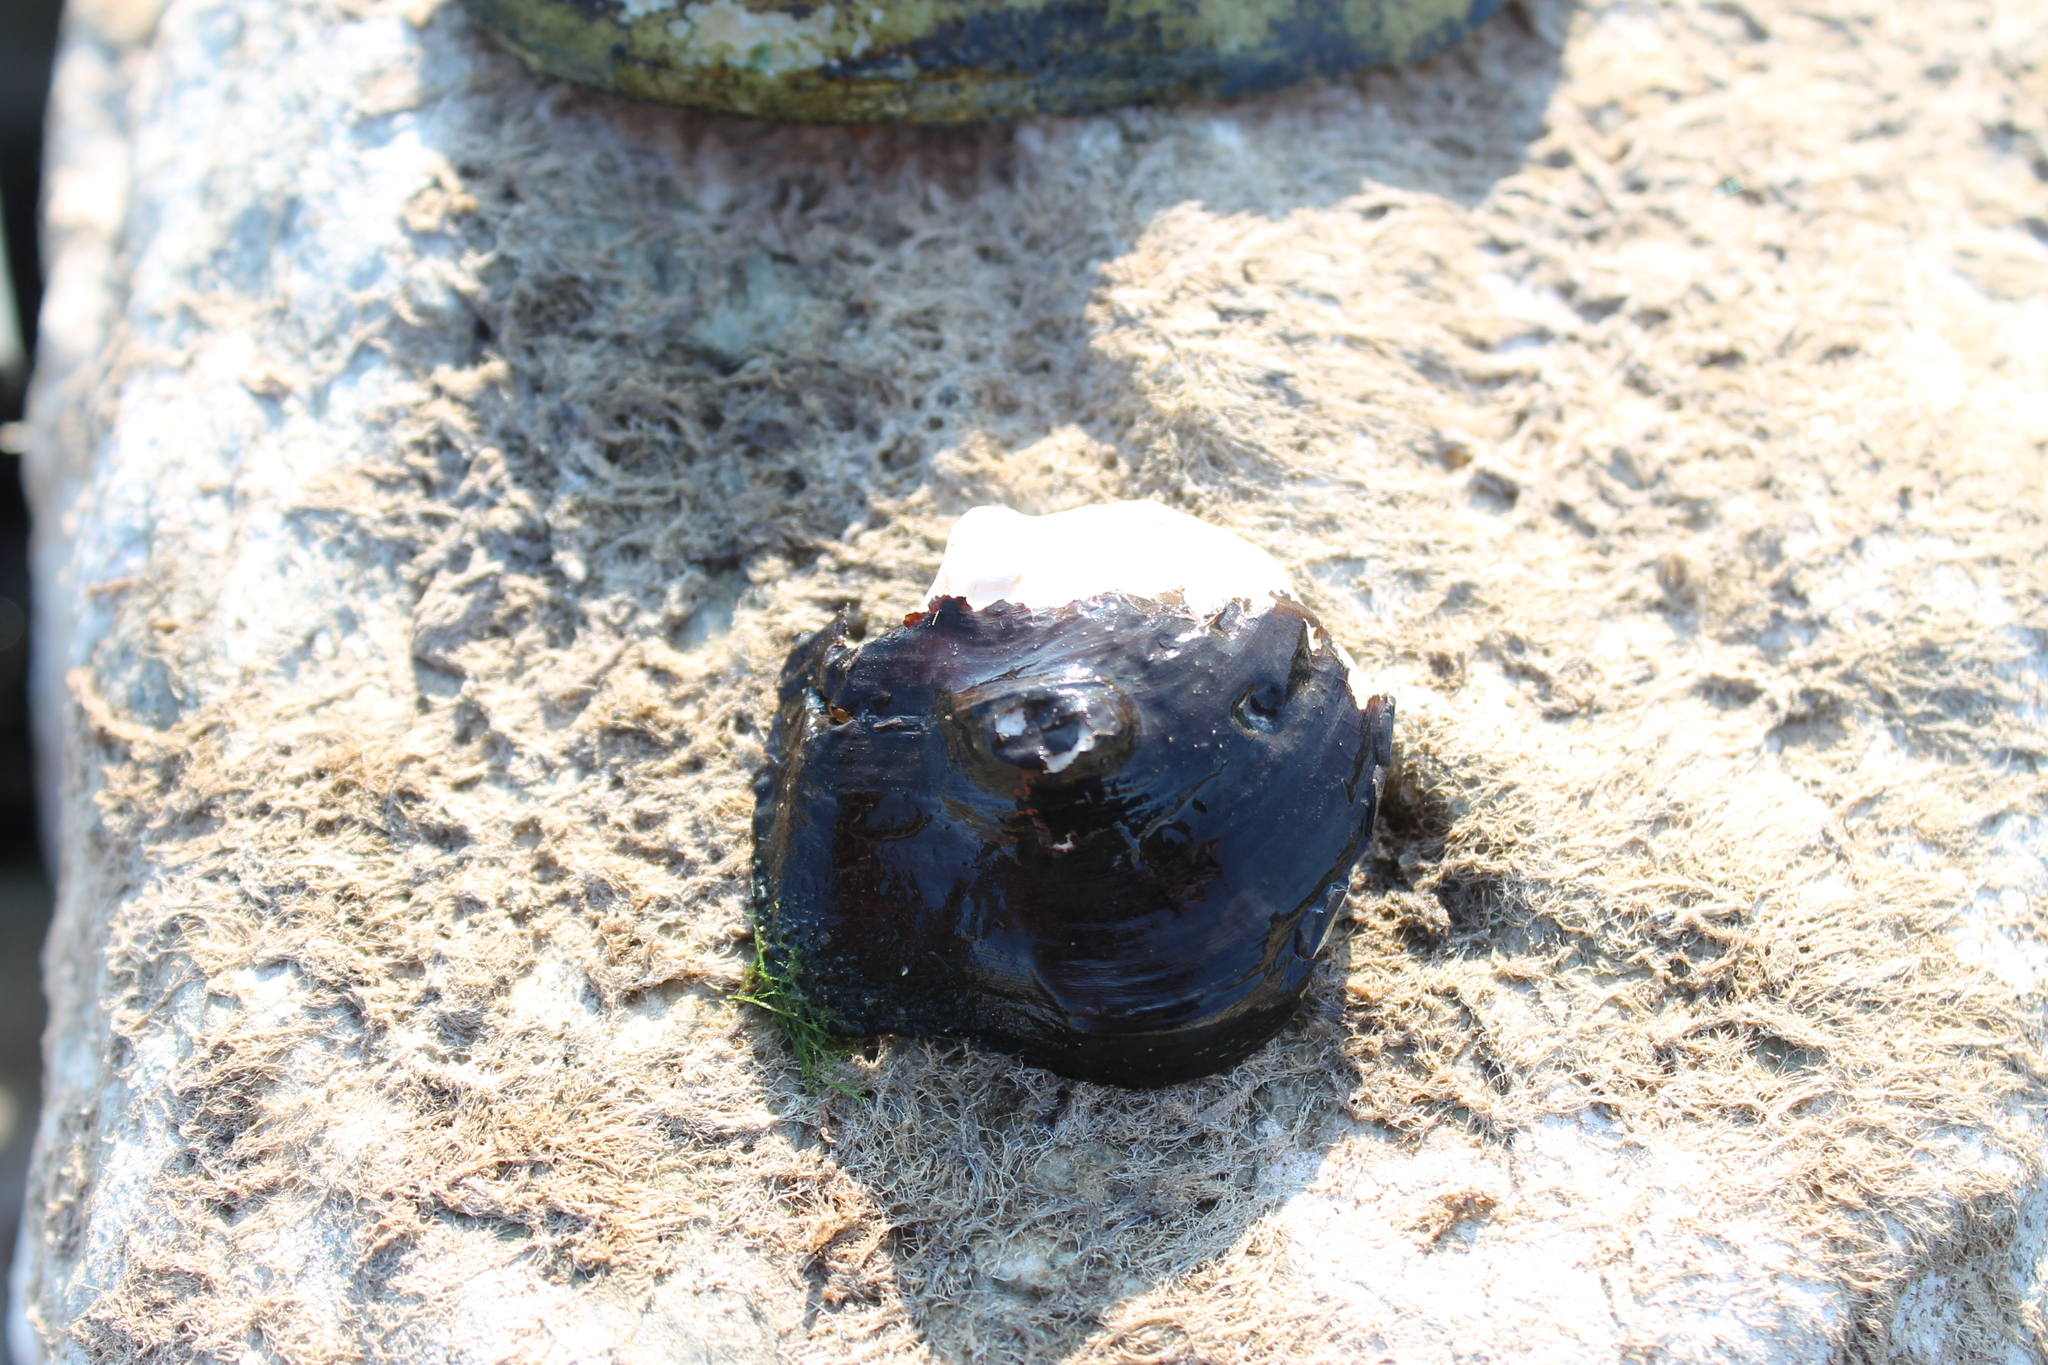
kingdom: Animalia
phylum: Mollusca
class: Bivalvia
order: Unionida
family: Unionidae
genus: Obliquaria
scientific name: Obliquaria reflexa
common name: Threehorn wartyback
